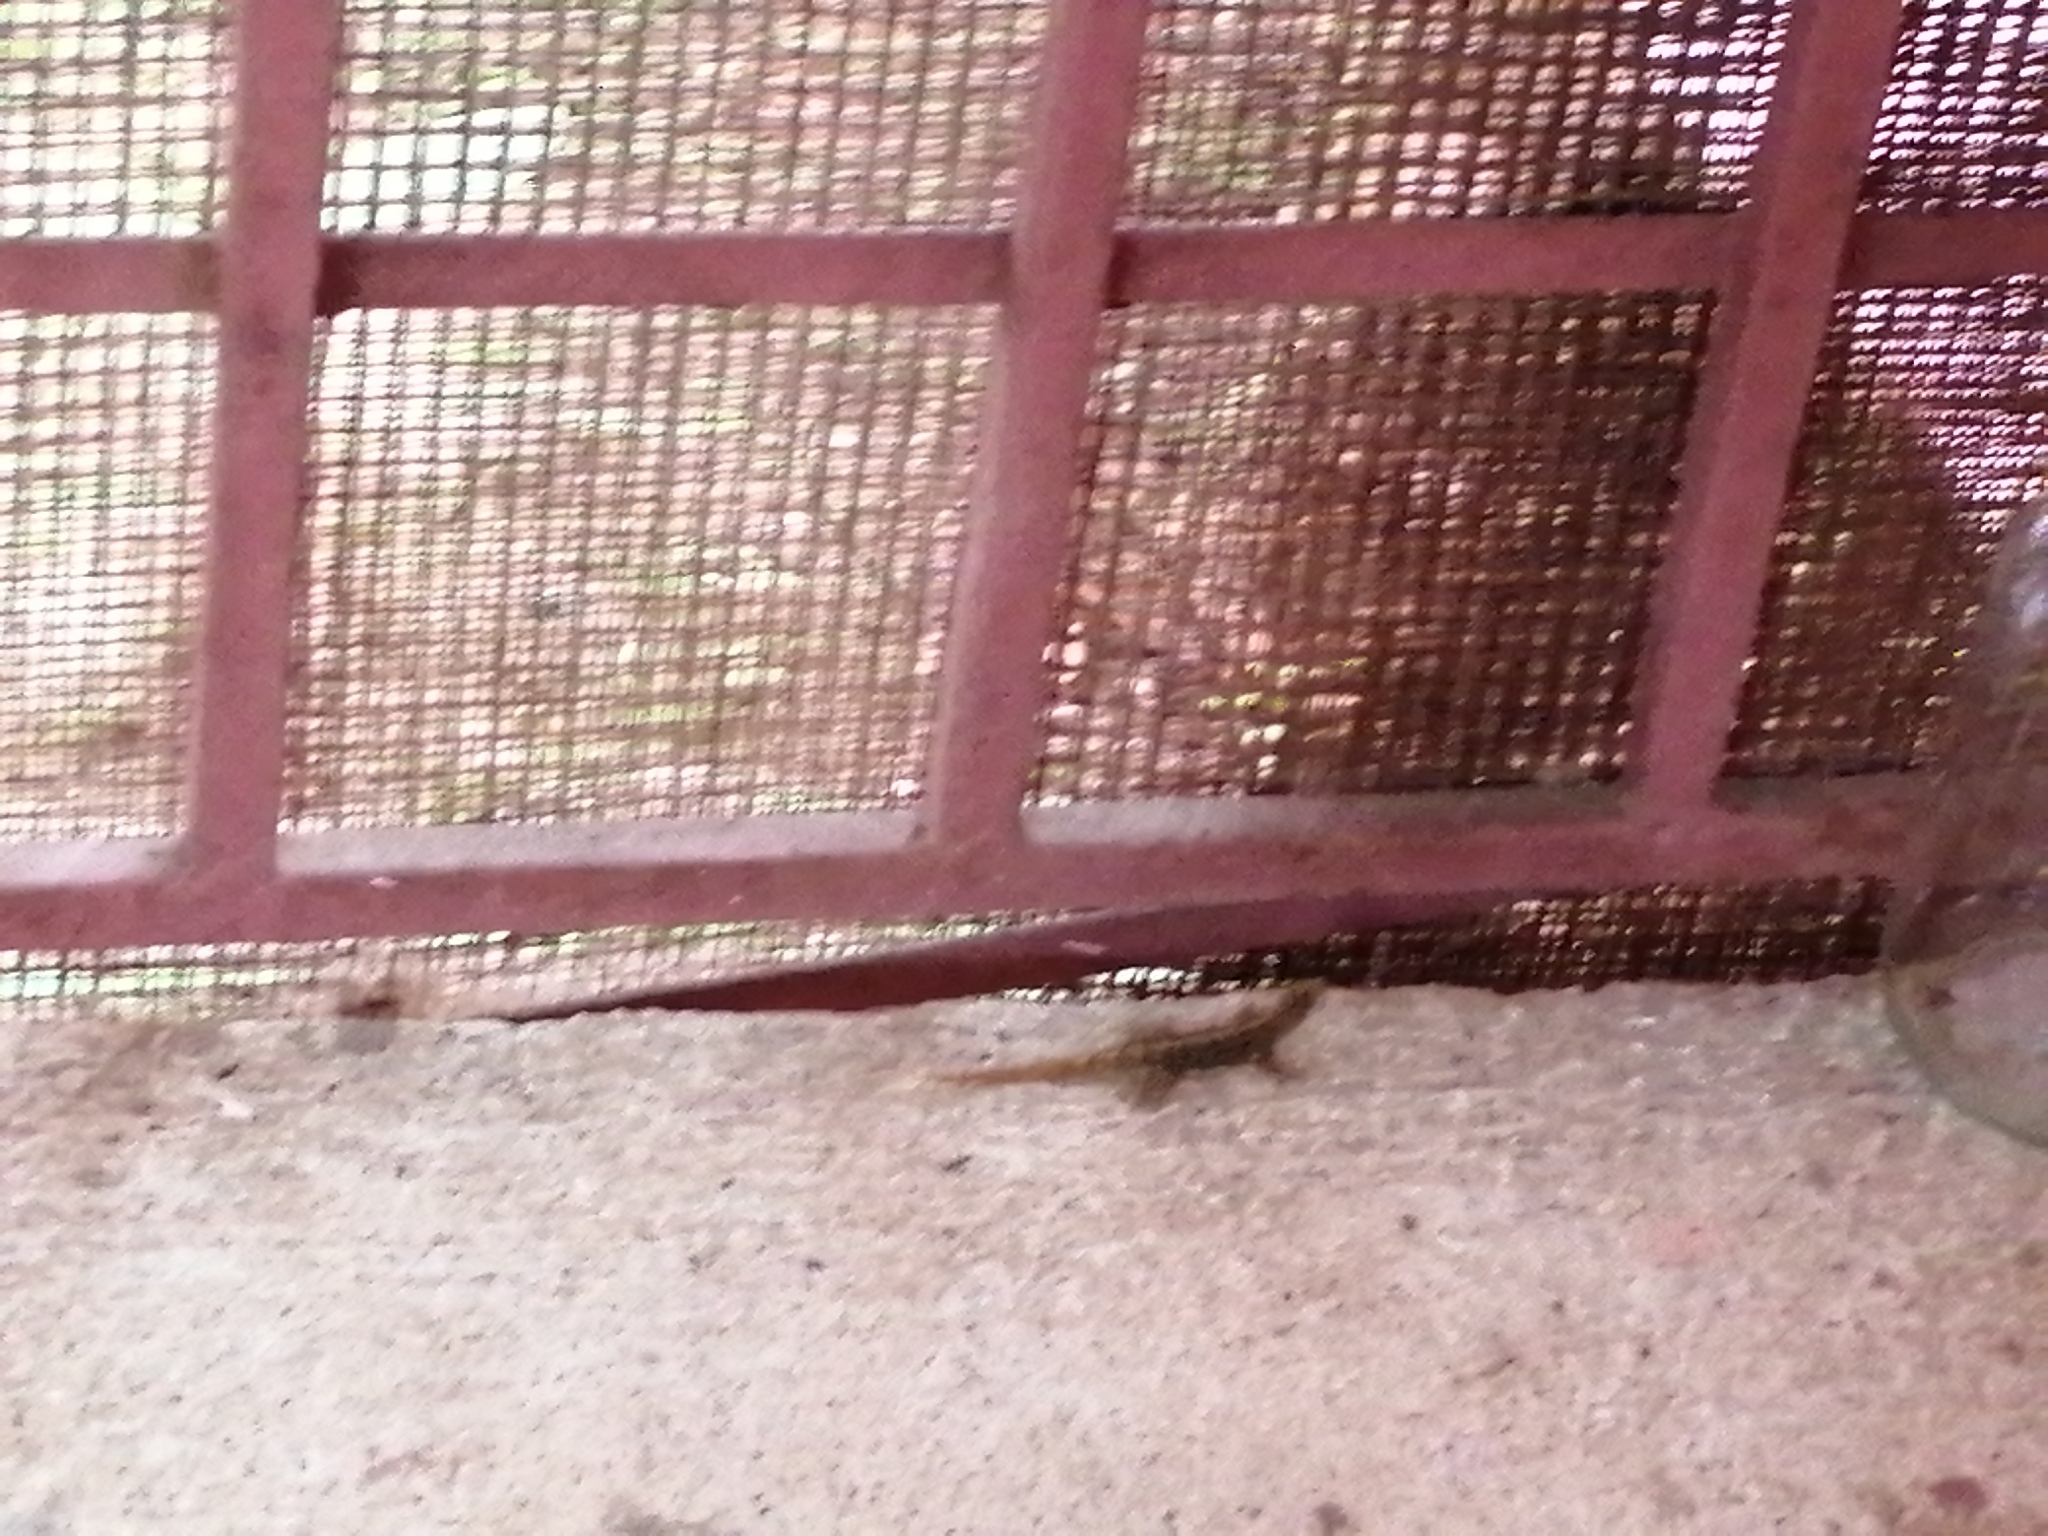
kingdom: Animalia
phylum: Chordata
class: Squamata
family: Sphaerodactylidae
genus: Gonatodes
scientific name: Gonatodes albogularis
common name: Yellow-headed gecko
